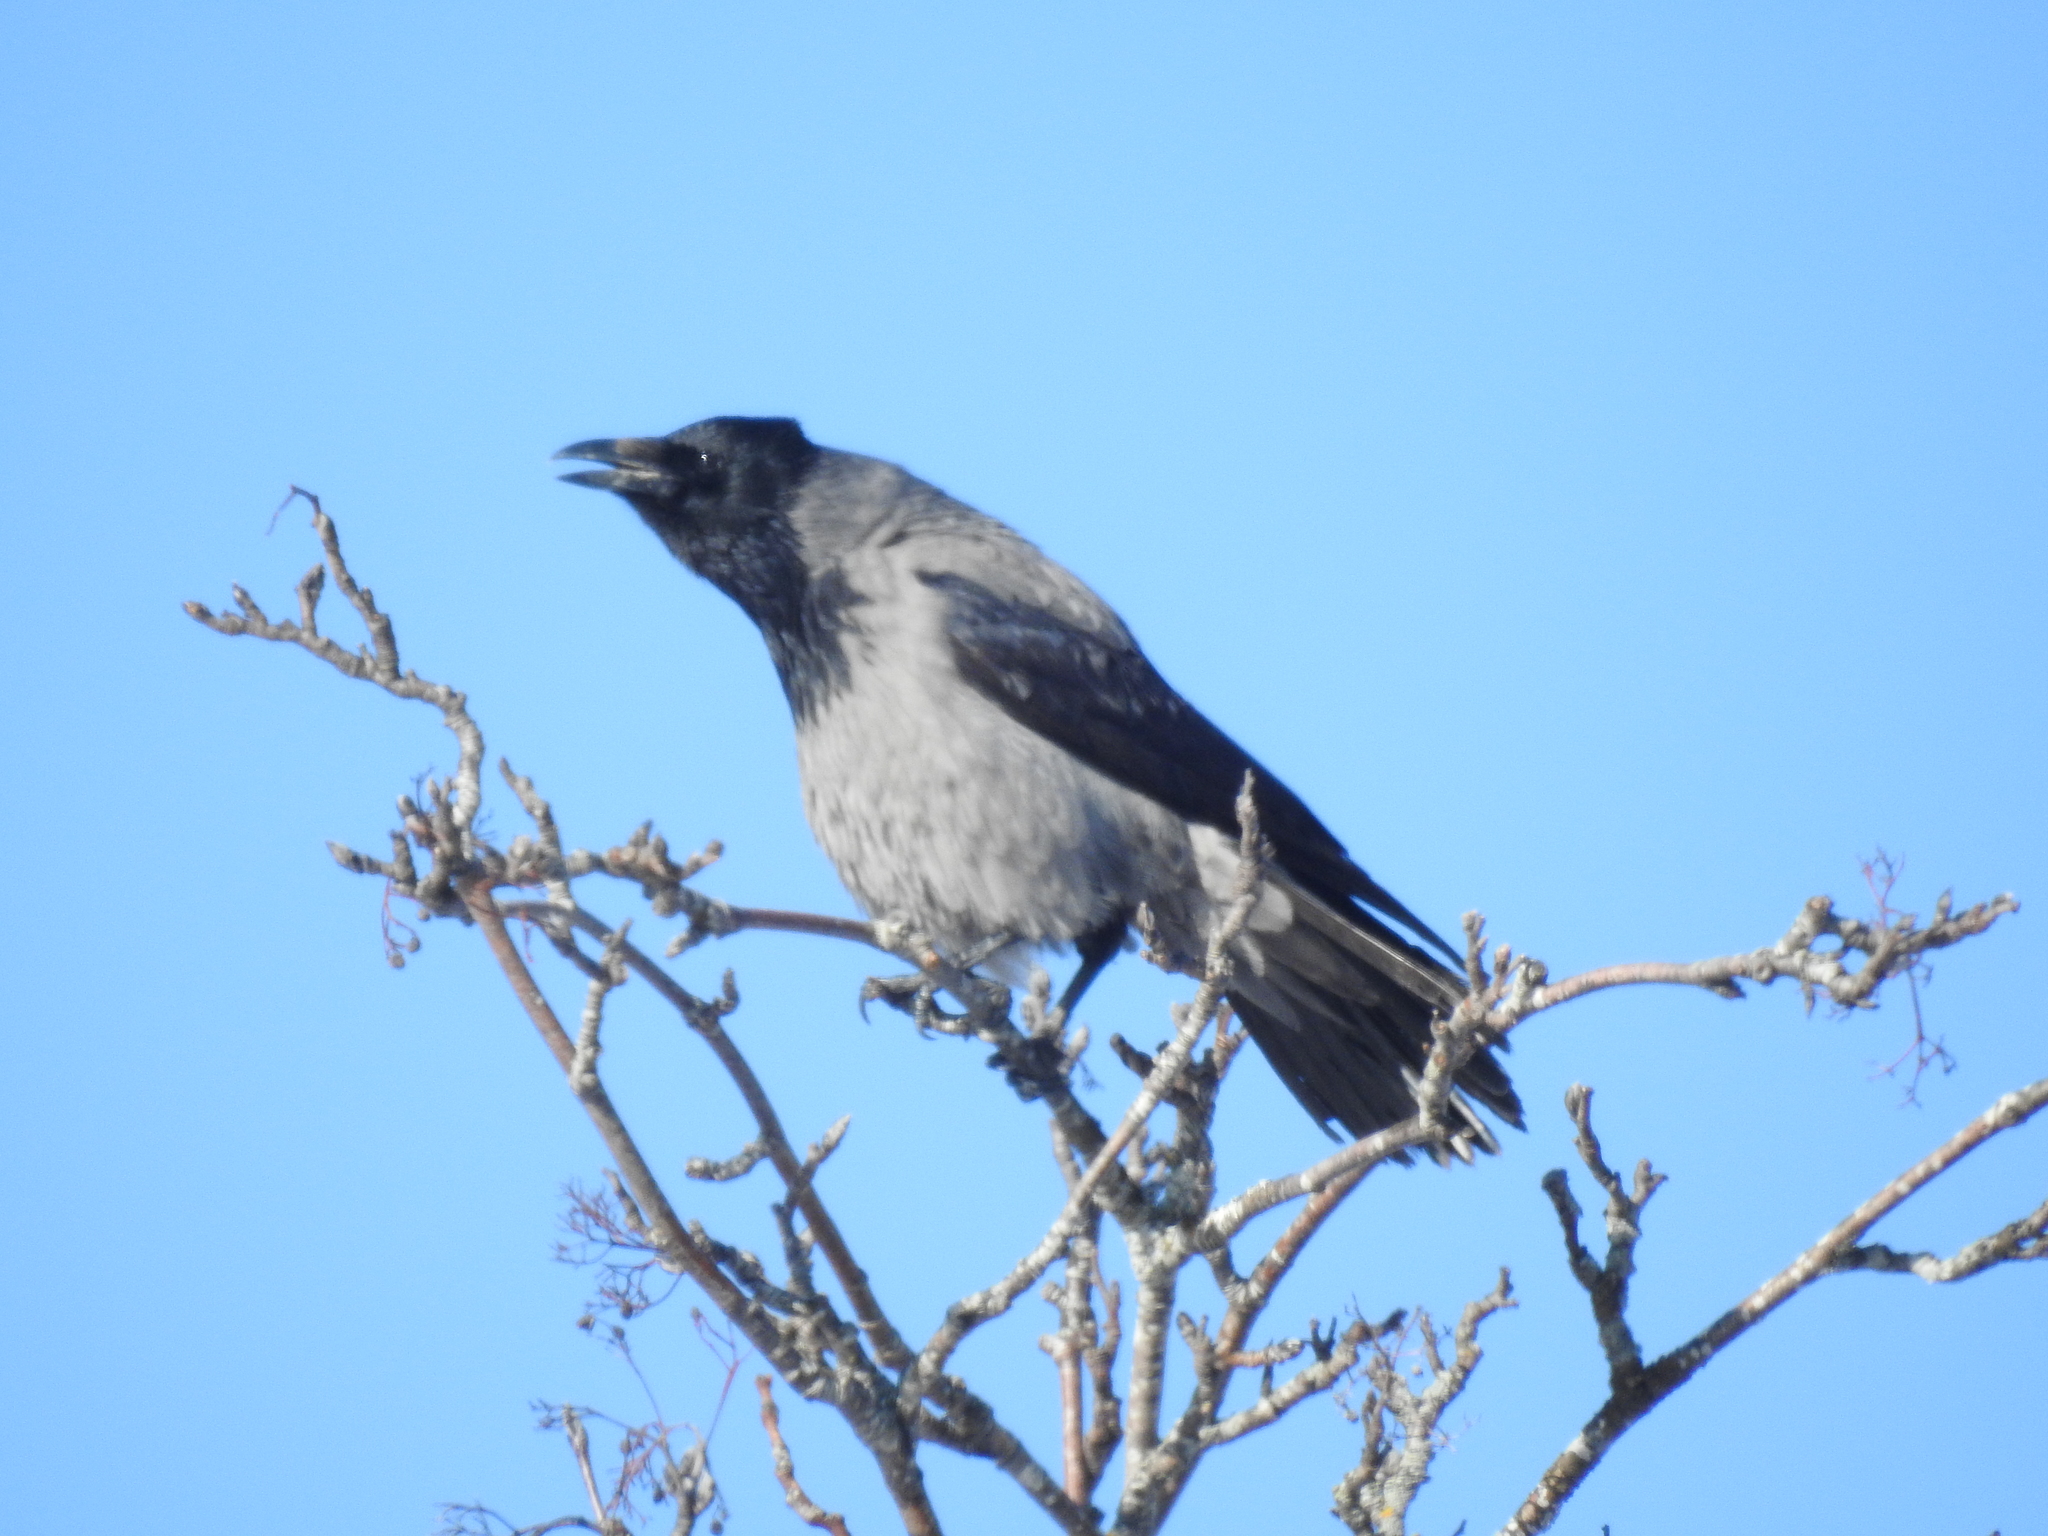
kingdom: Animalia
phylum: Chordata
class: Aves
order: Passeriformes
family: Corvidae
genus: Corvus
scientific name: Corvus cornix
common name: Hooded crow
